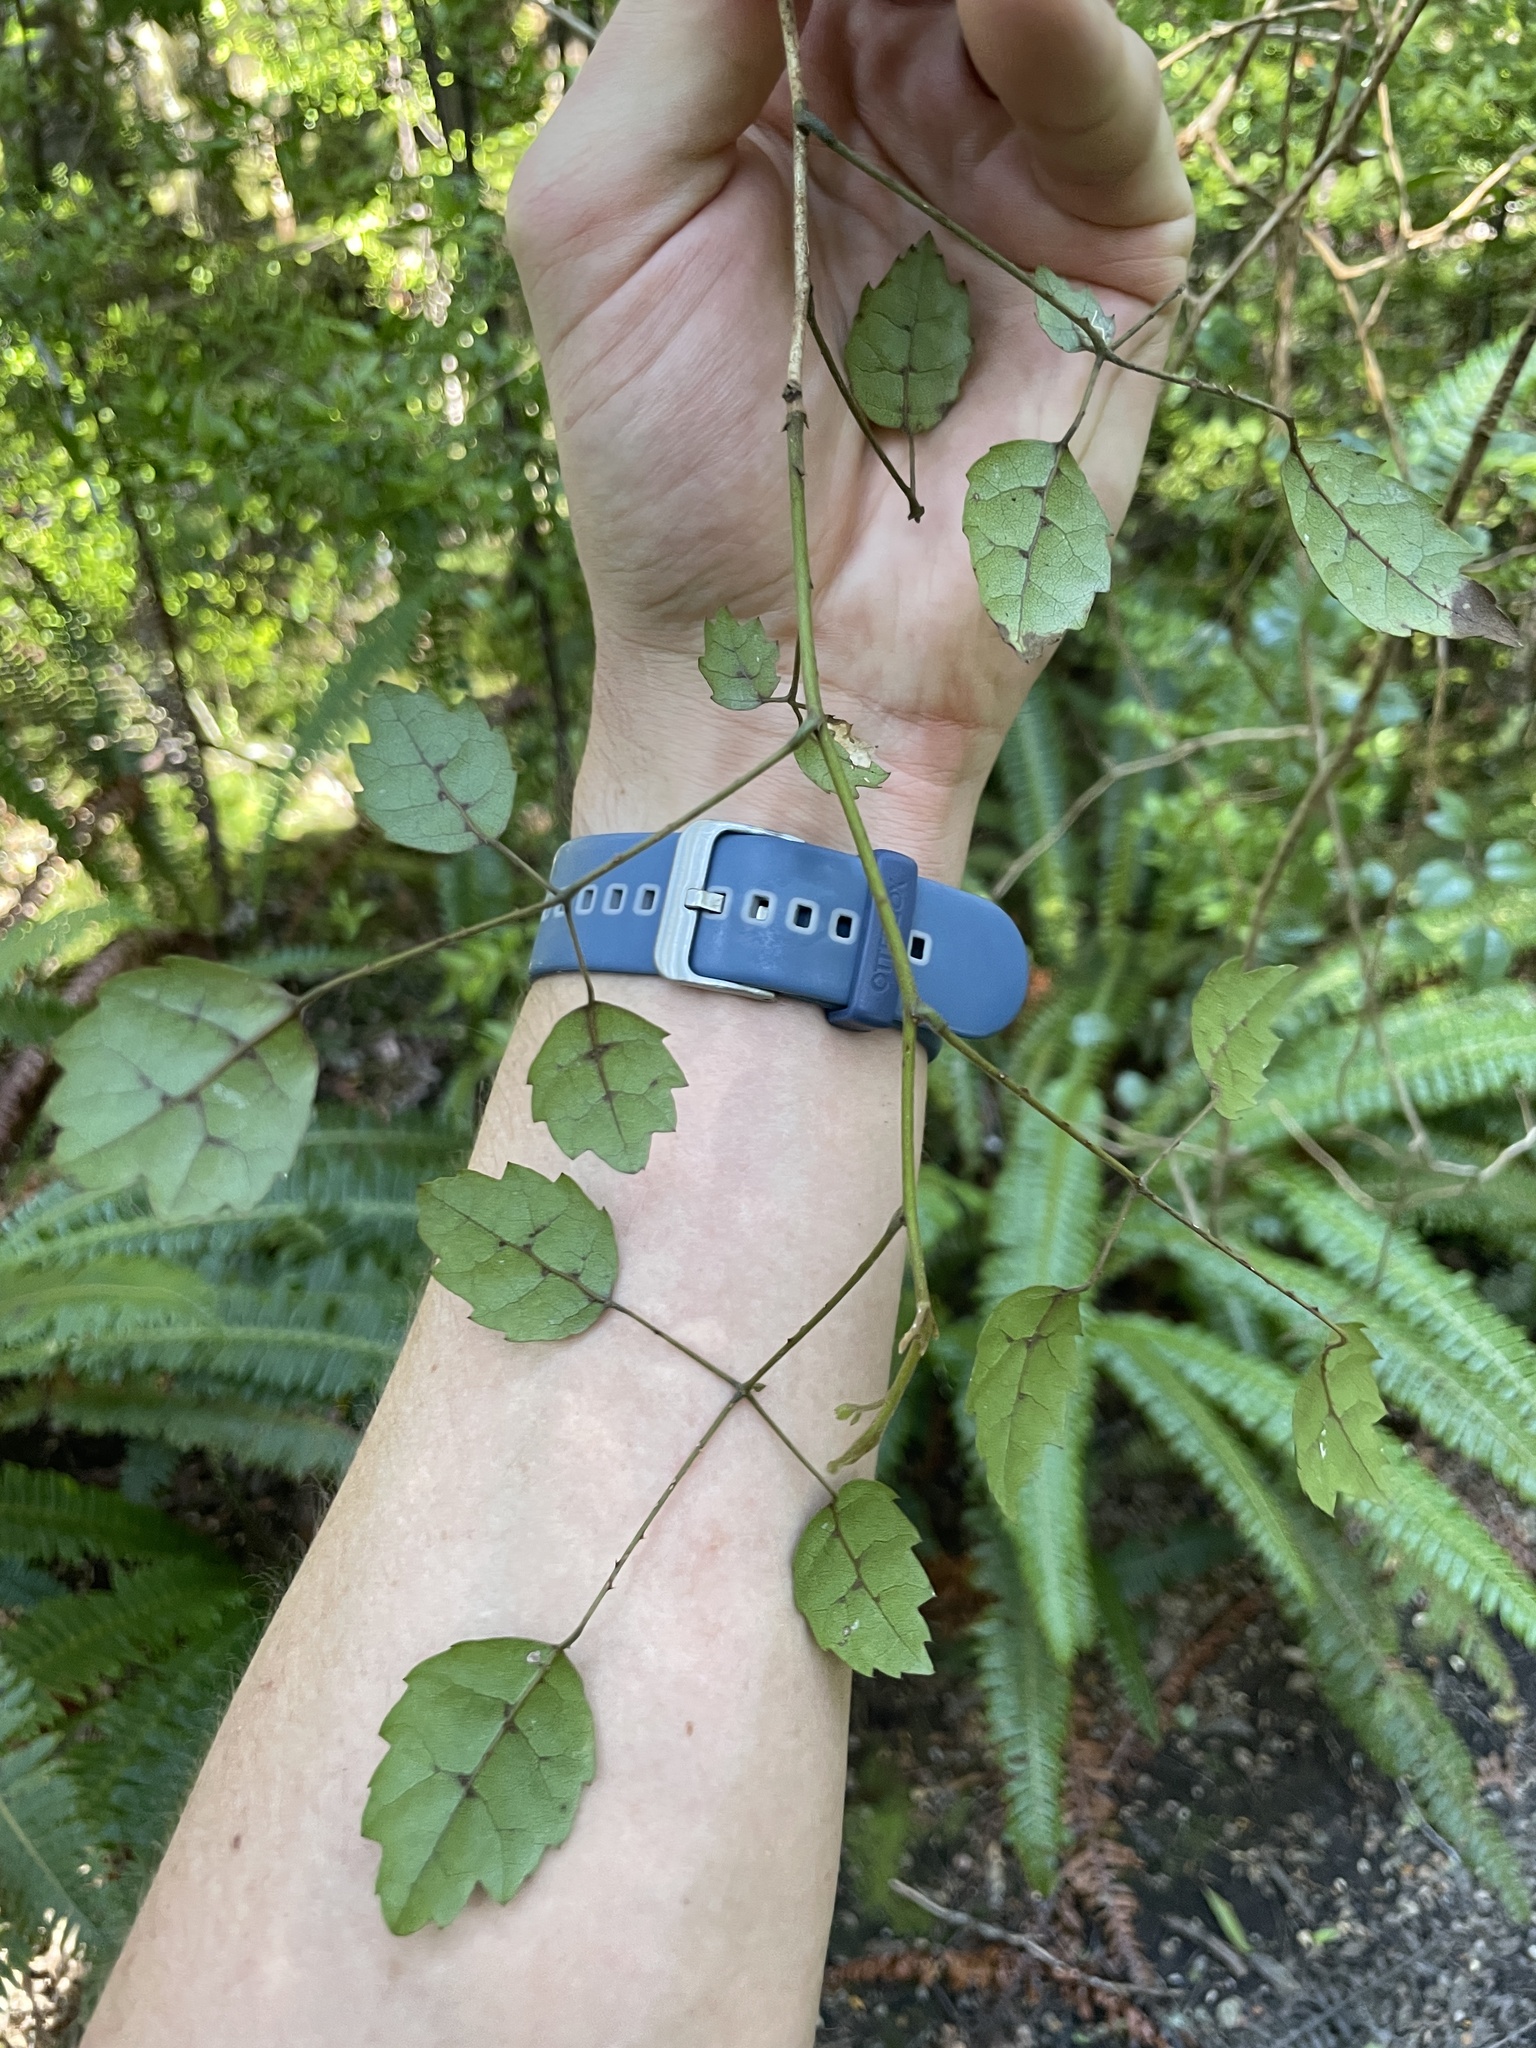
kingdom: Plantae
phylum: Tracheophyta
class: Magnoliopsida
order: Rosales
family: Rosaceae
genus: Rubus
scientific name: Rubus australis
